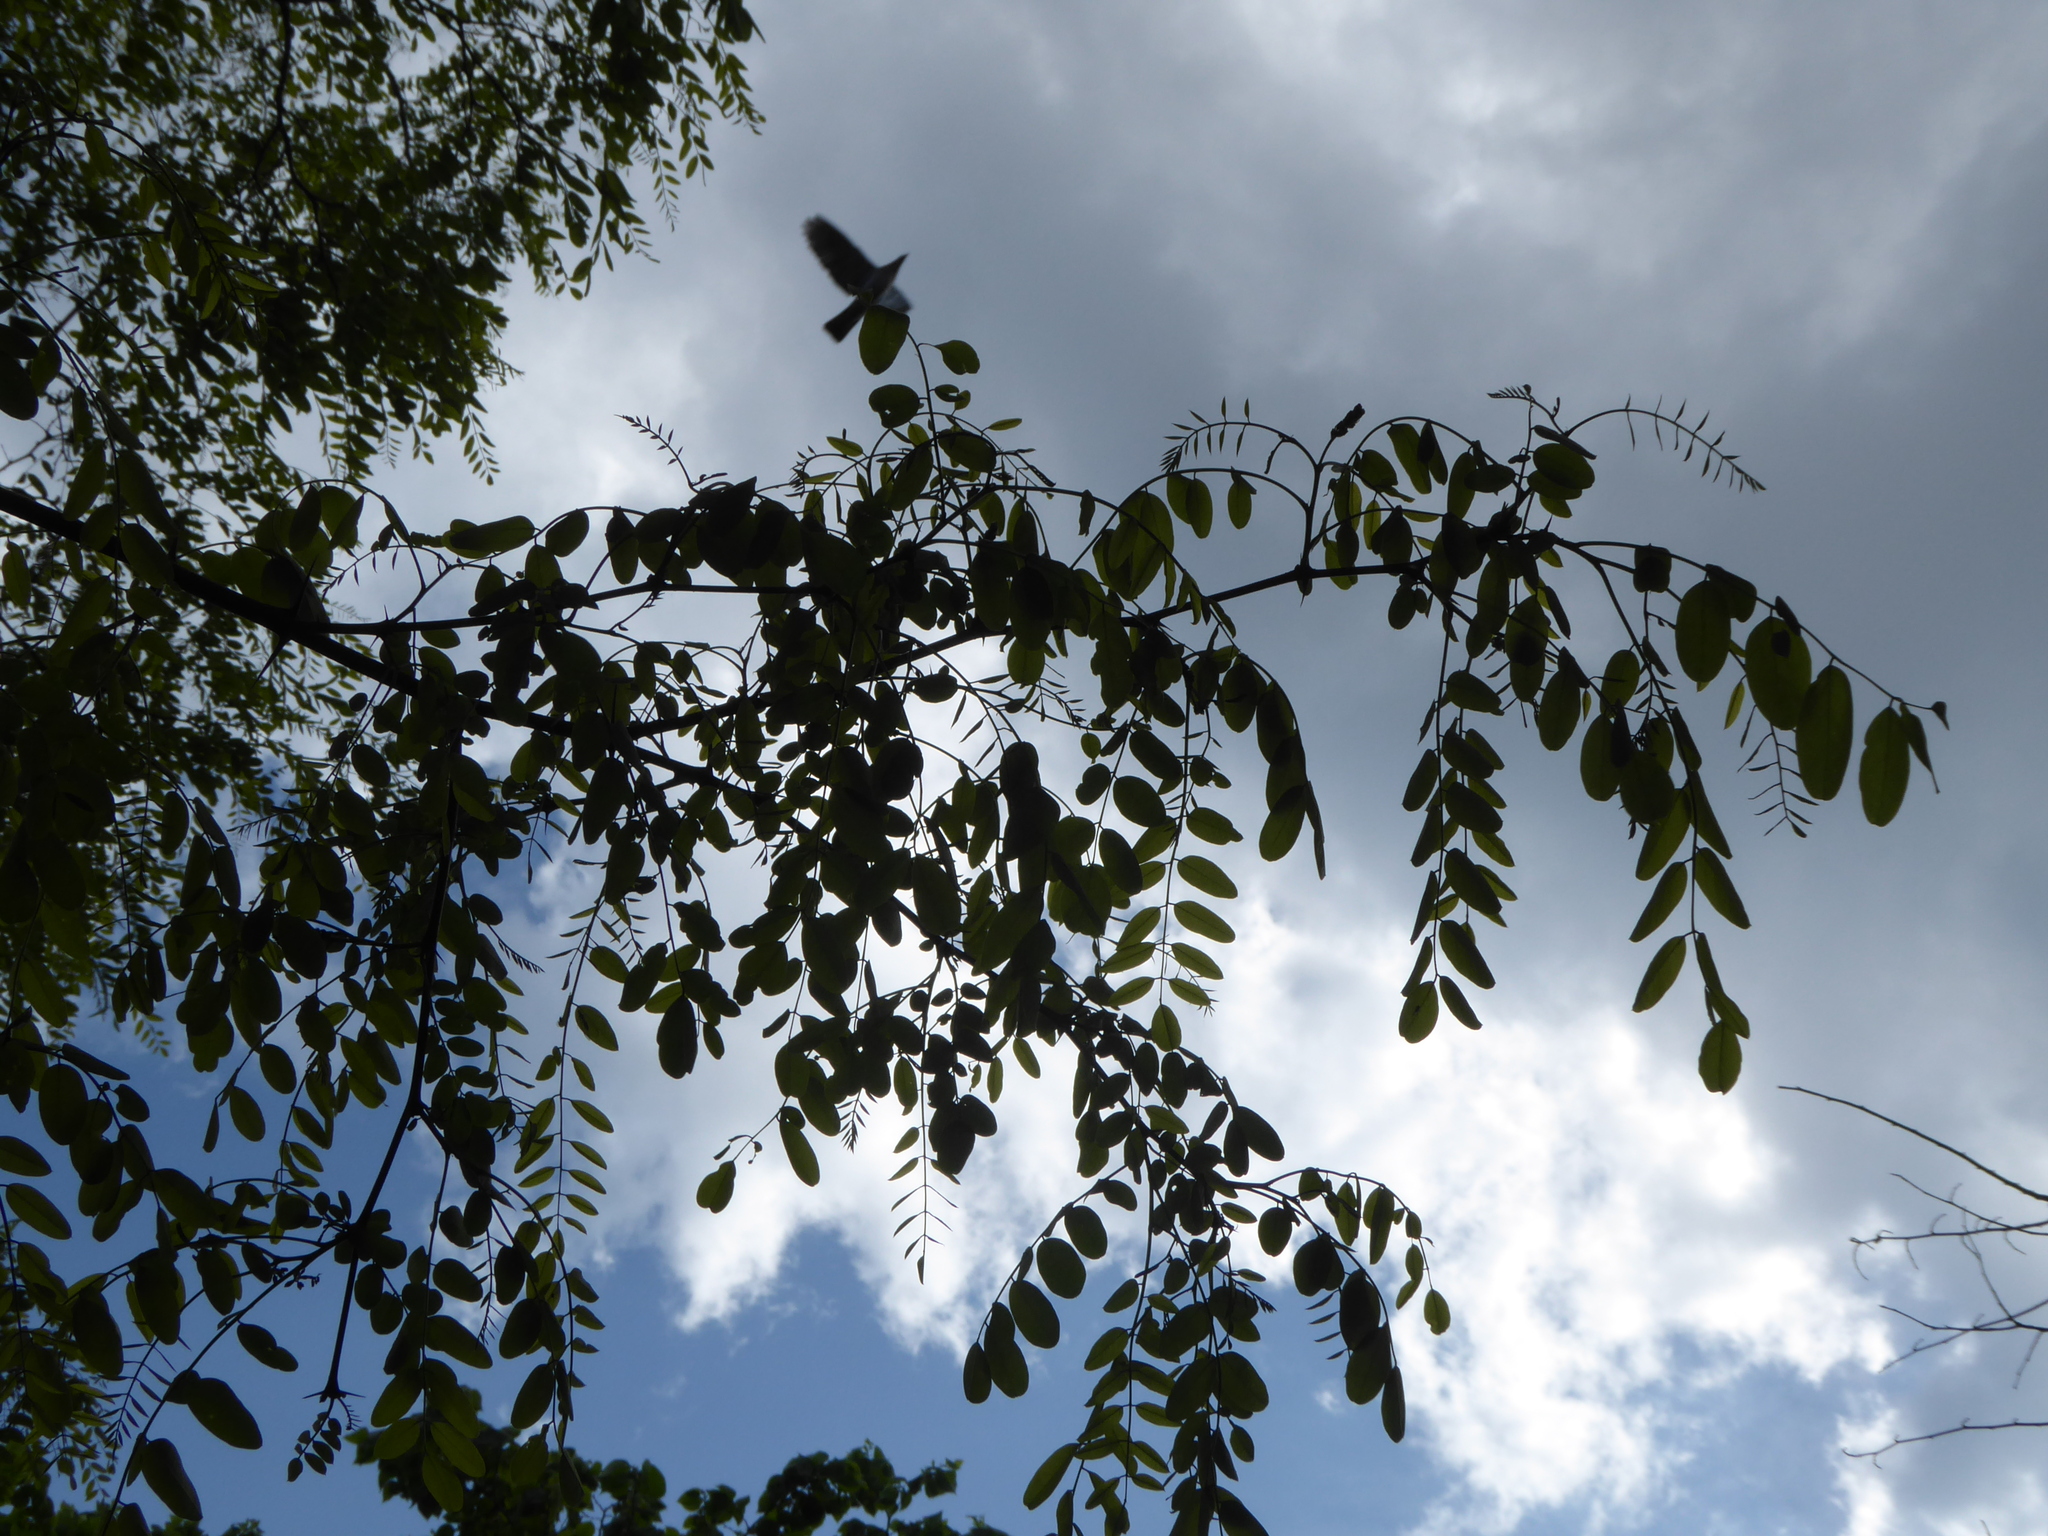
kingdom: Plantae
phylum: Tracheophyta
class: Magnoliopsida
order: Fabales
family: Fabaceae
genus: Robinia
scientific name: Robinia pseudoacacia
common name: Black locust
